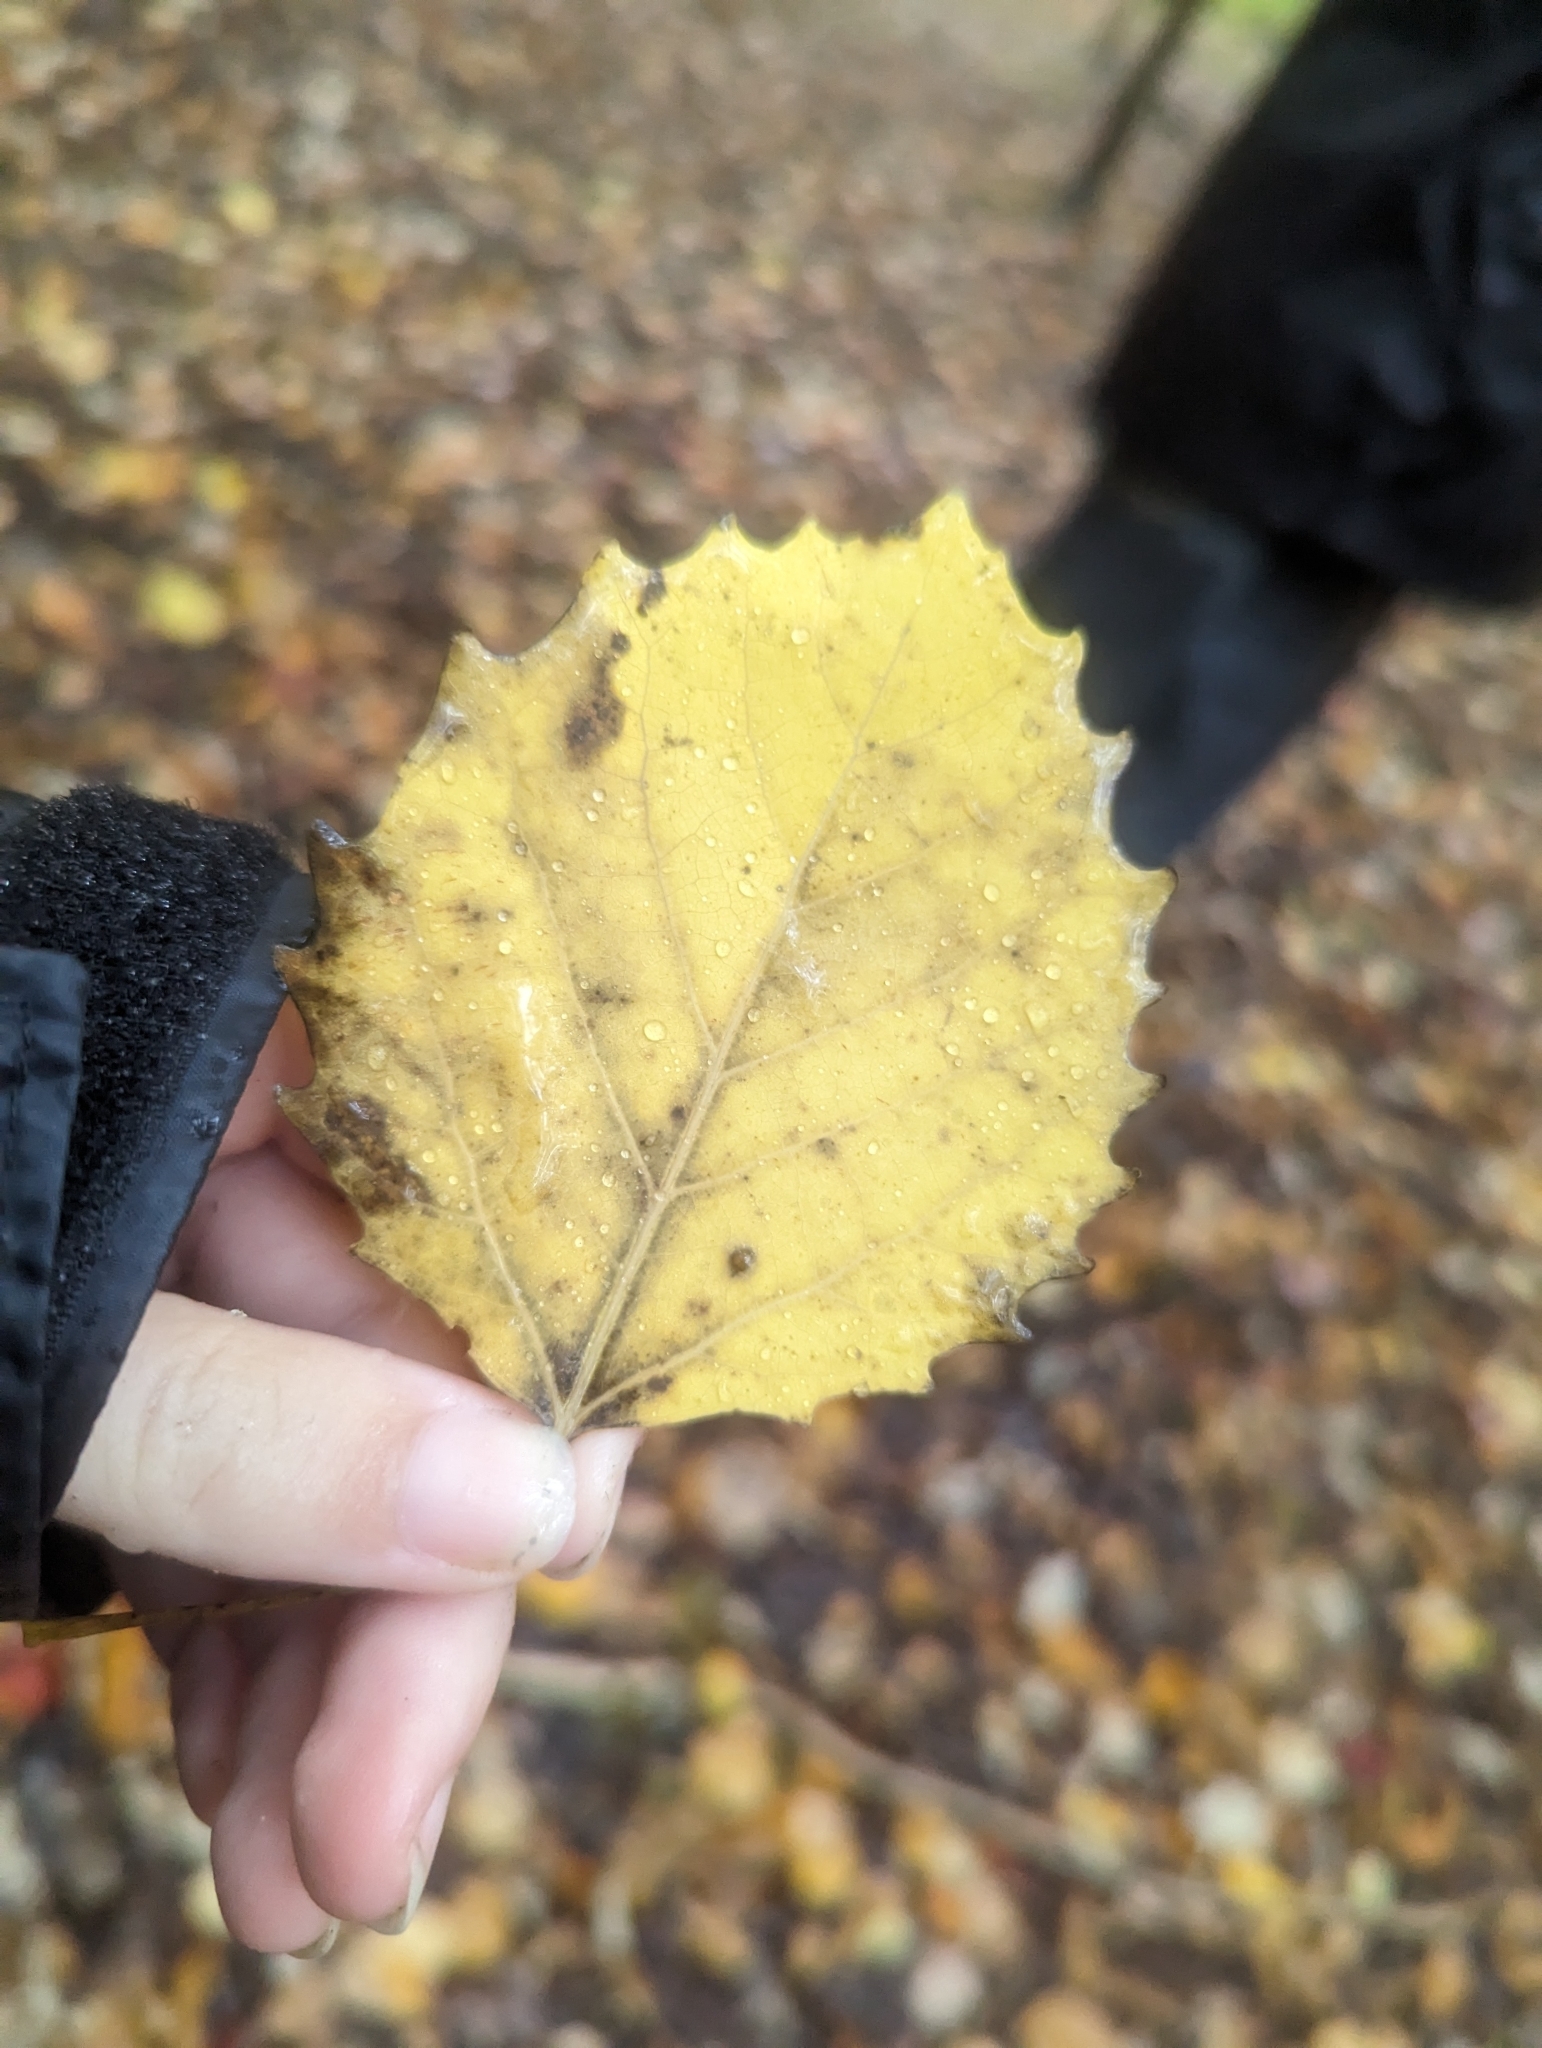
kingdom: Plantae
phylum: Tracheophyta
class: Magnoliopsida
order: Malpighiales
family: Salicaceae
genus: Populus
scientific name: Populus grandidentata
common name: Bigtooth aspen
